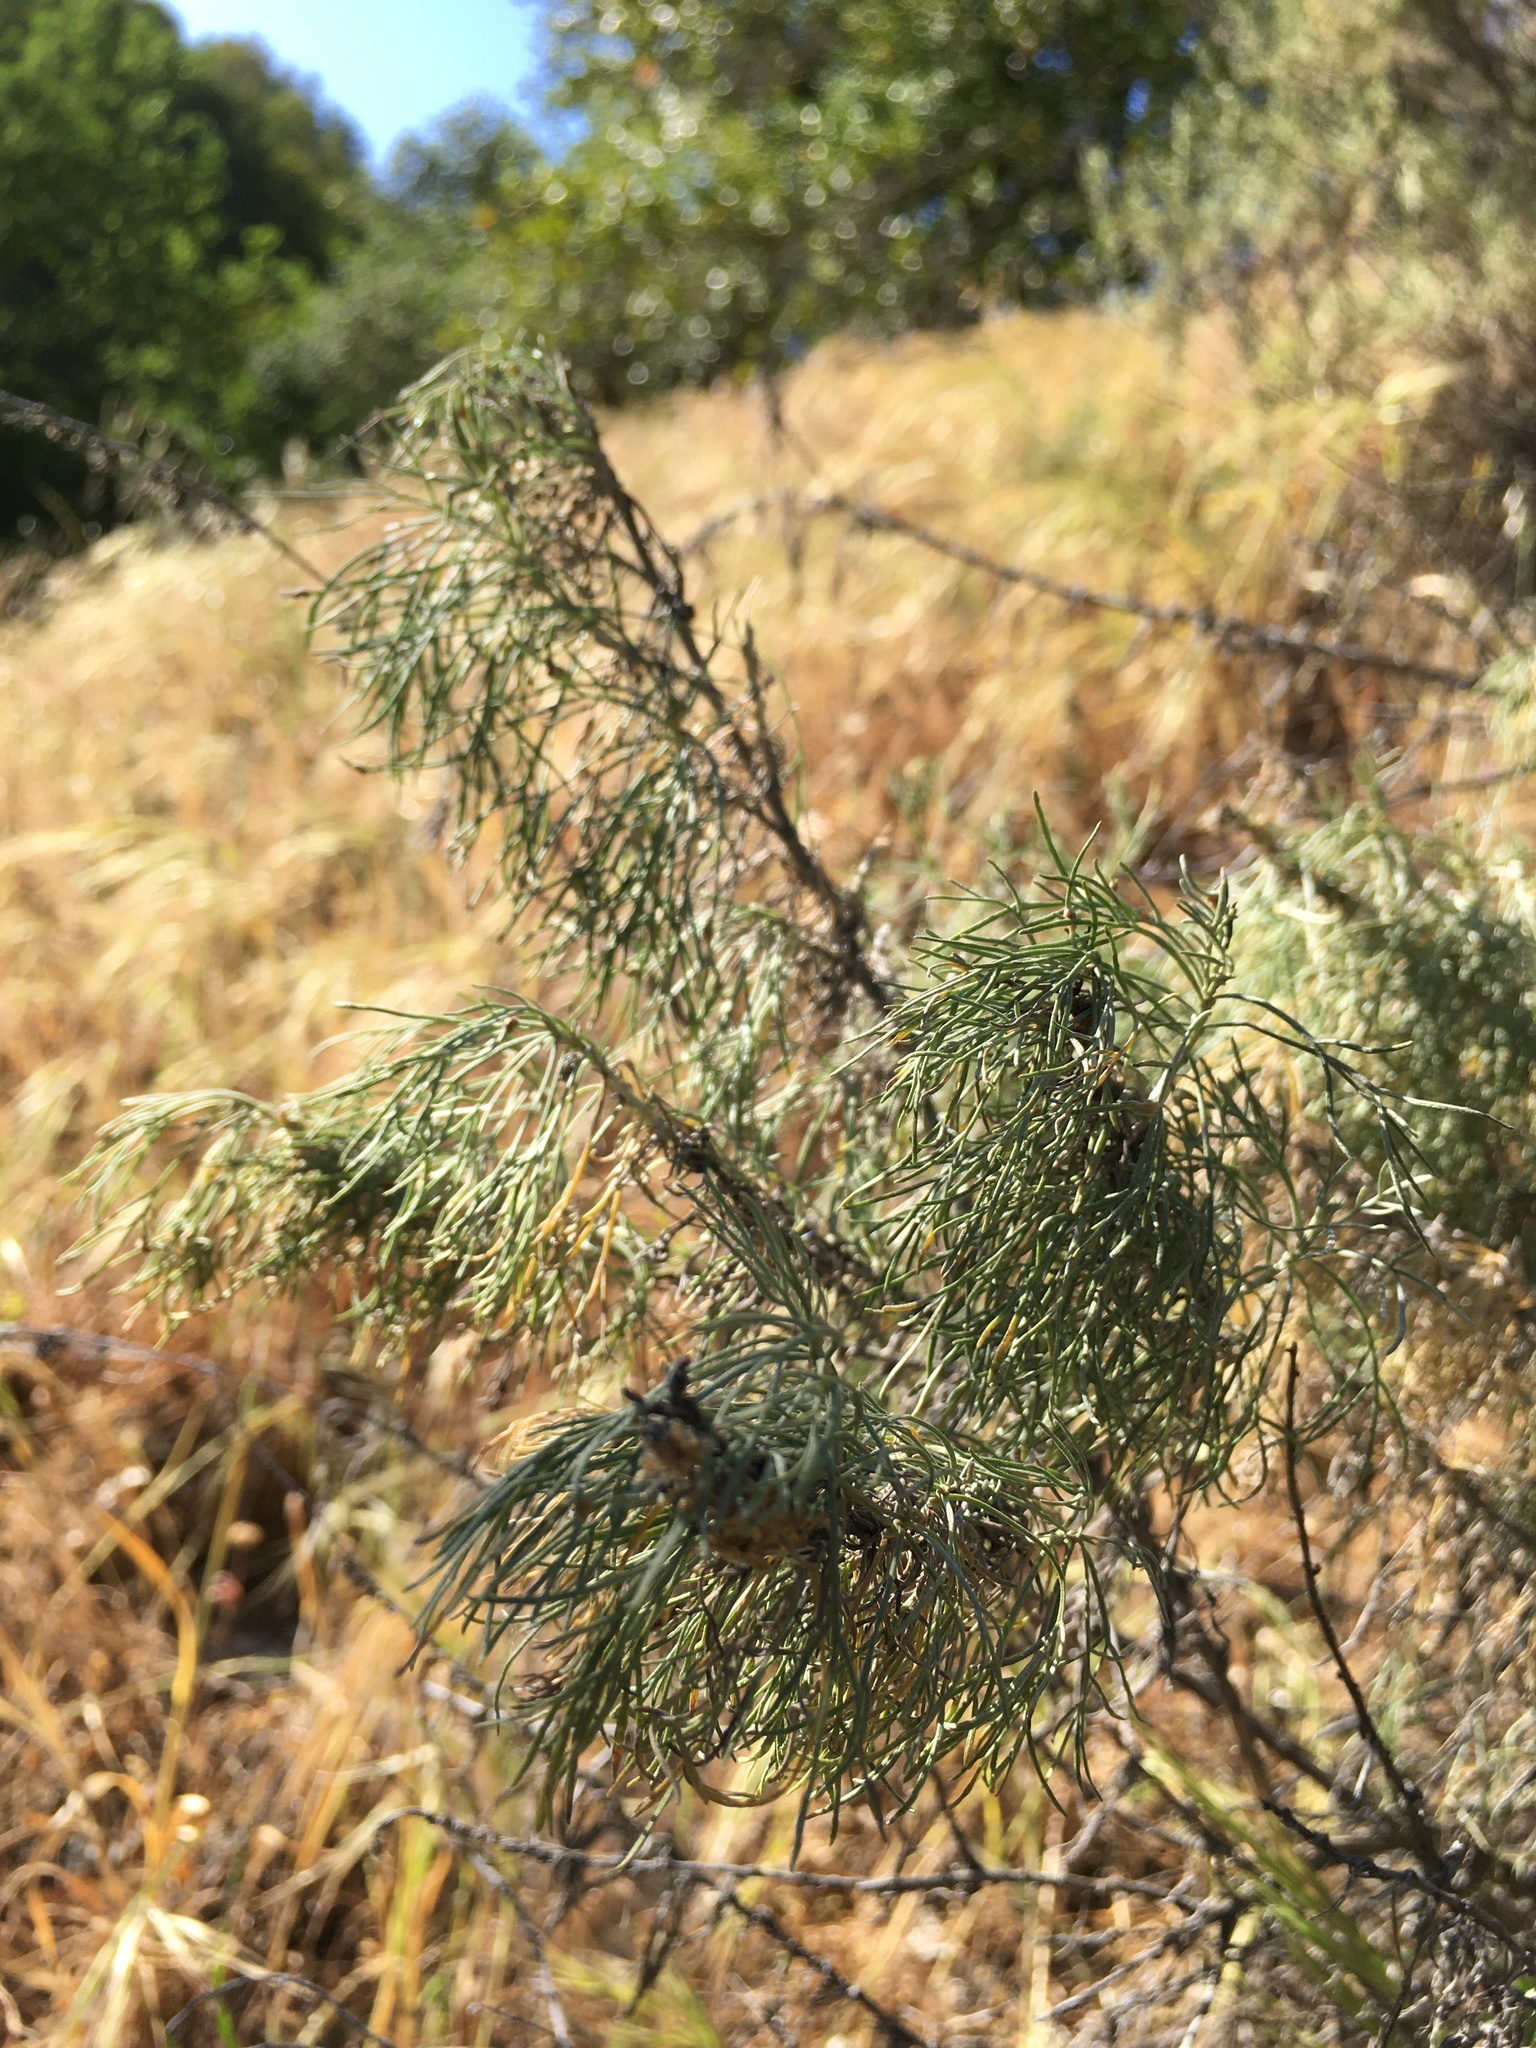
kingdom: Plantae
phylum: Tracheophyta
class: Magnoliopsida
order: Asterales
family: Asteraceae
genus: Artemisia
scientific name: Artemisia californica
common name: California sagebrush
